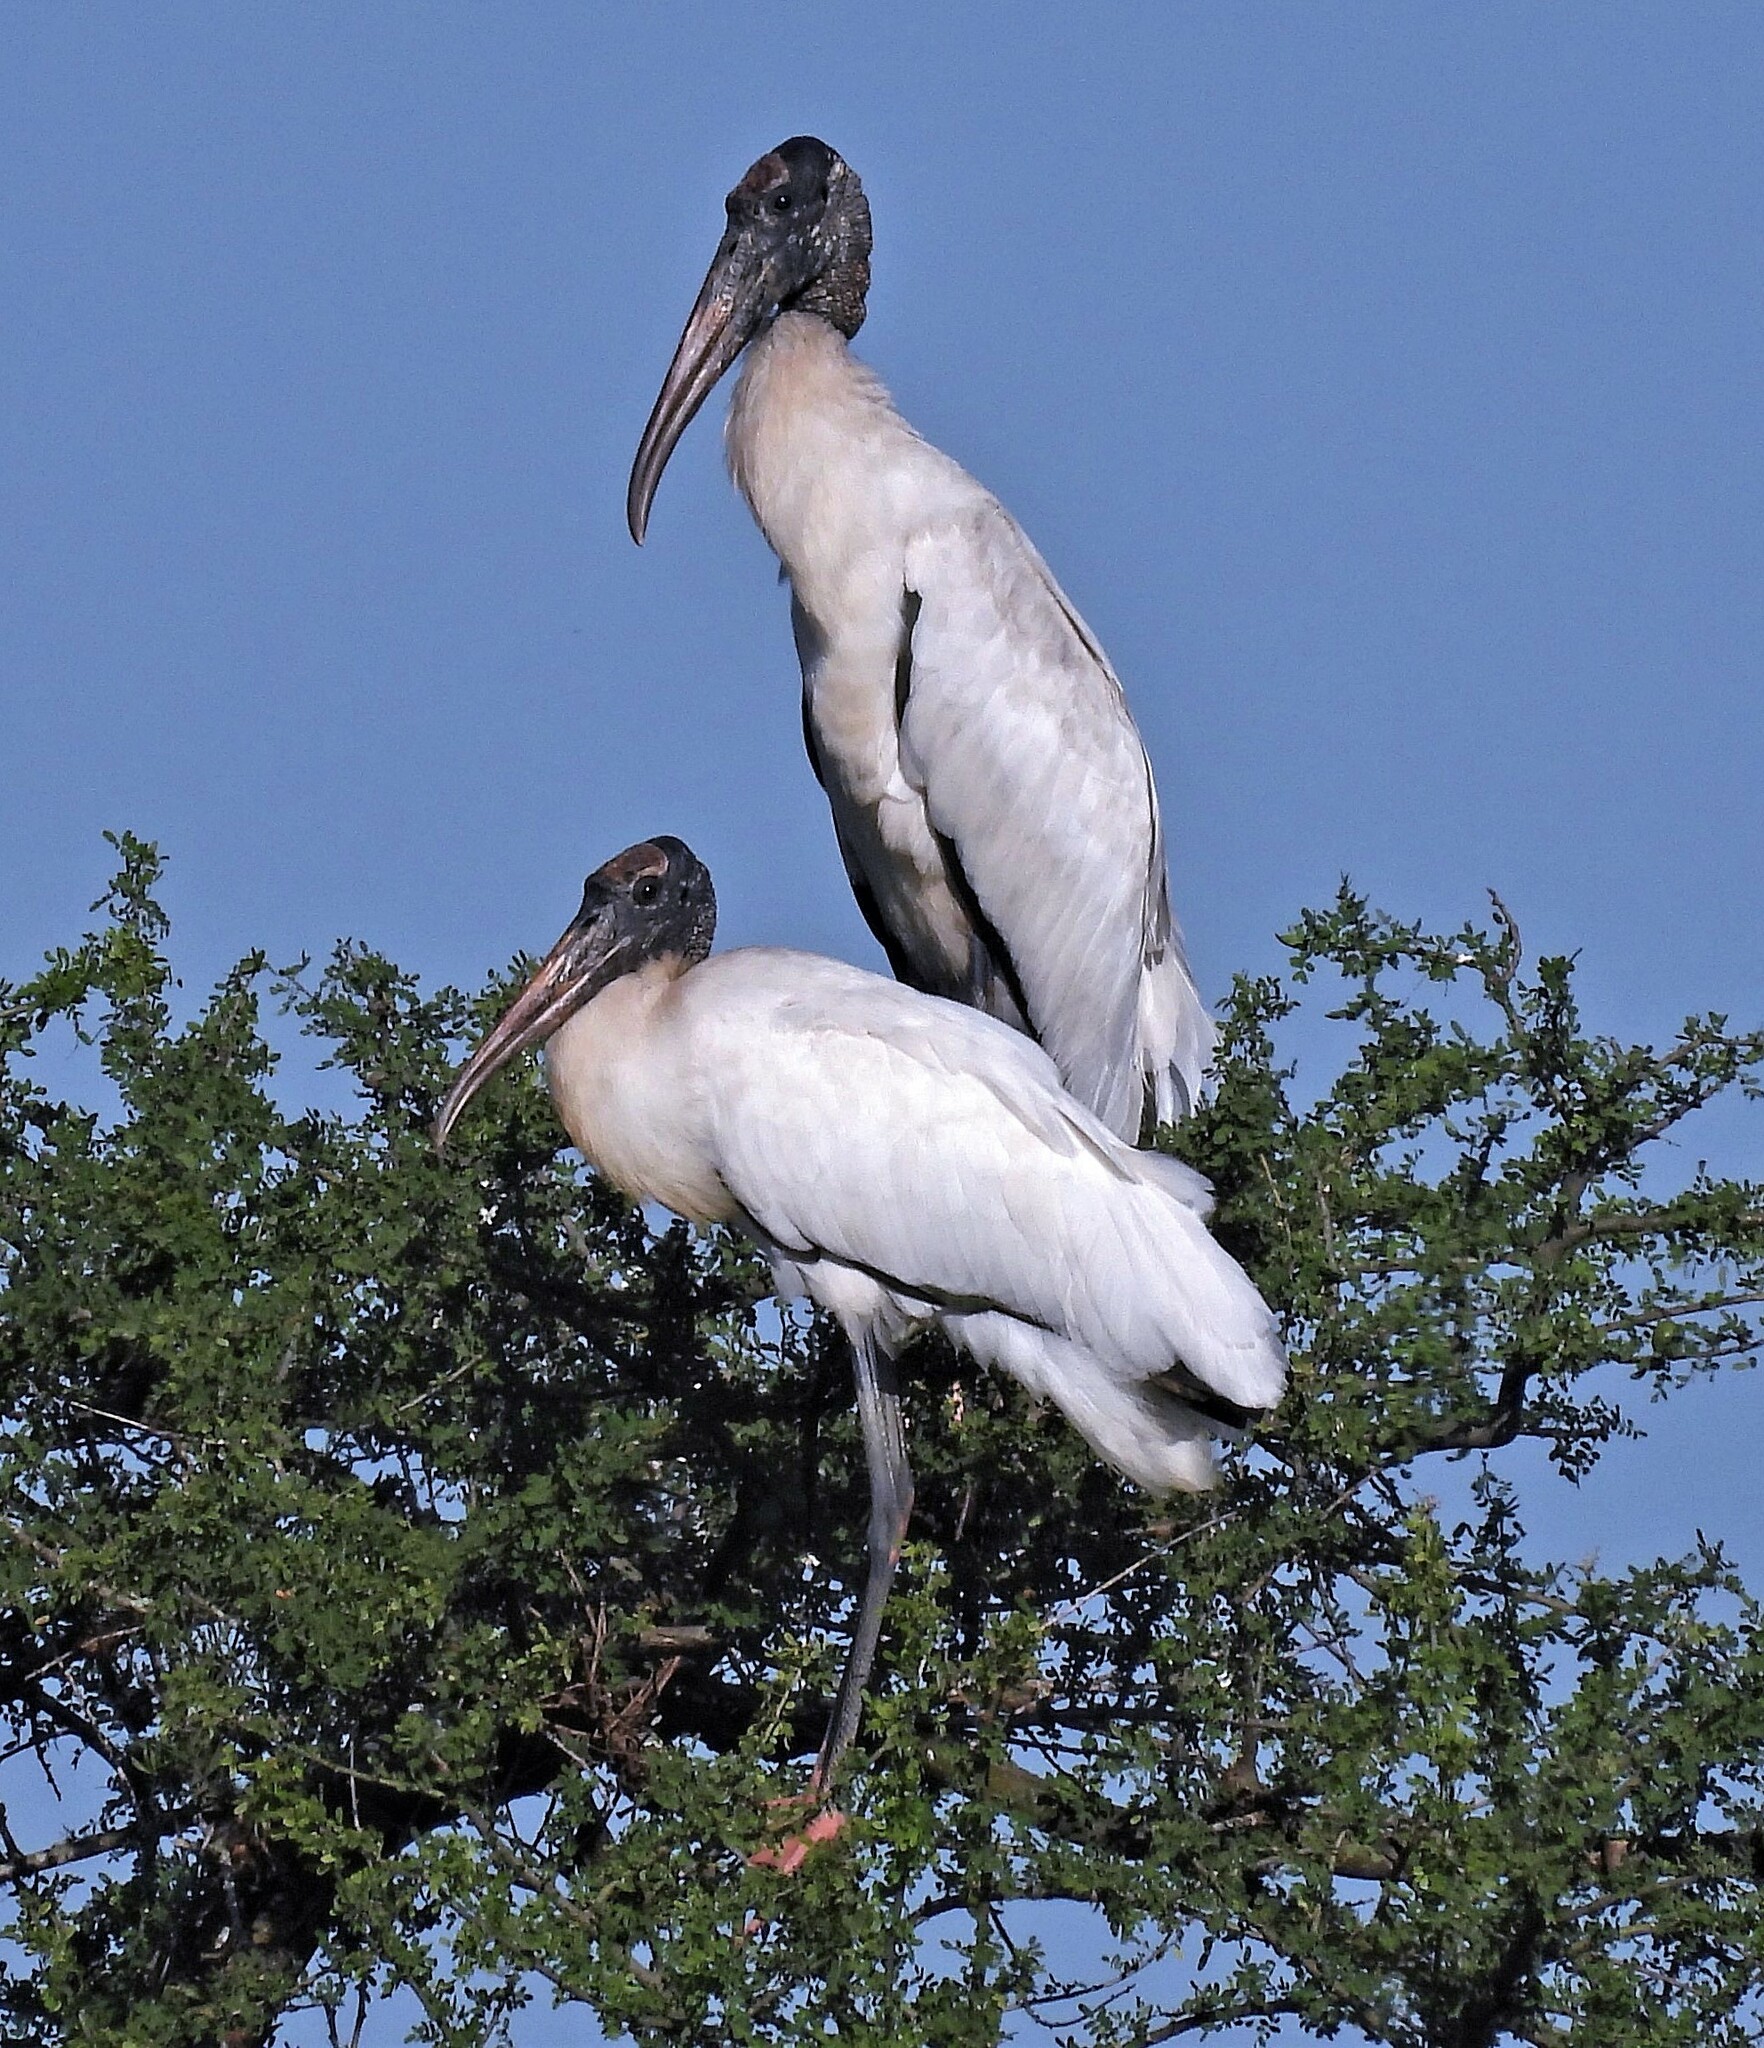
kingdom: Animalia
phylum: Chordata
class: Aves
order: Ciconiiformes
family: Ciconiidae
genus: Mycteria
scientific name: Mycteria americana
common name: Wood stork
